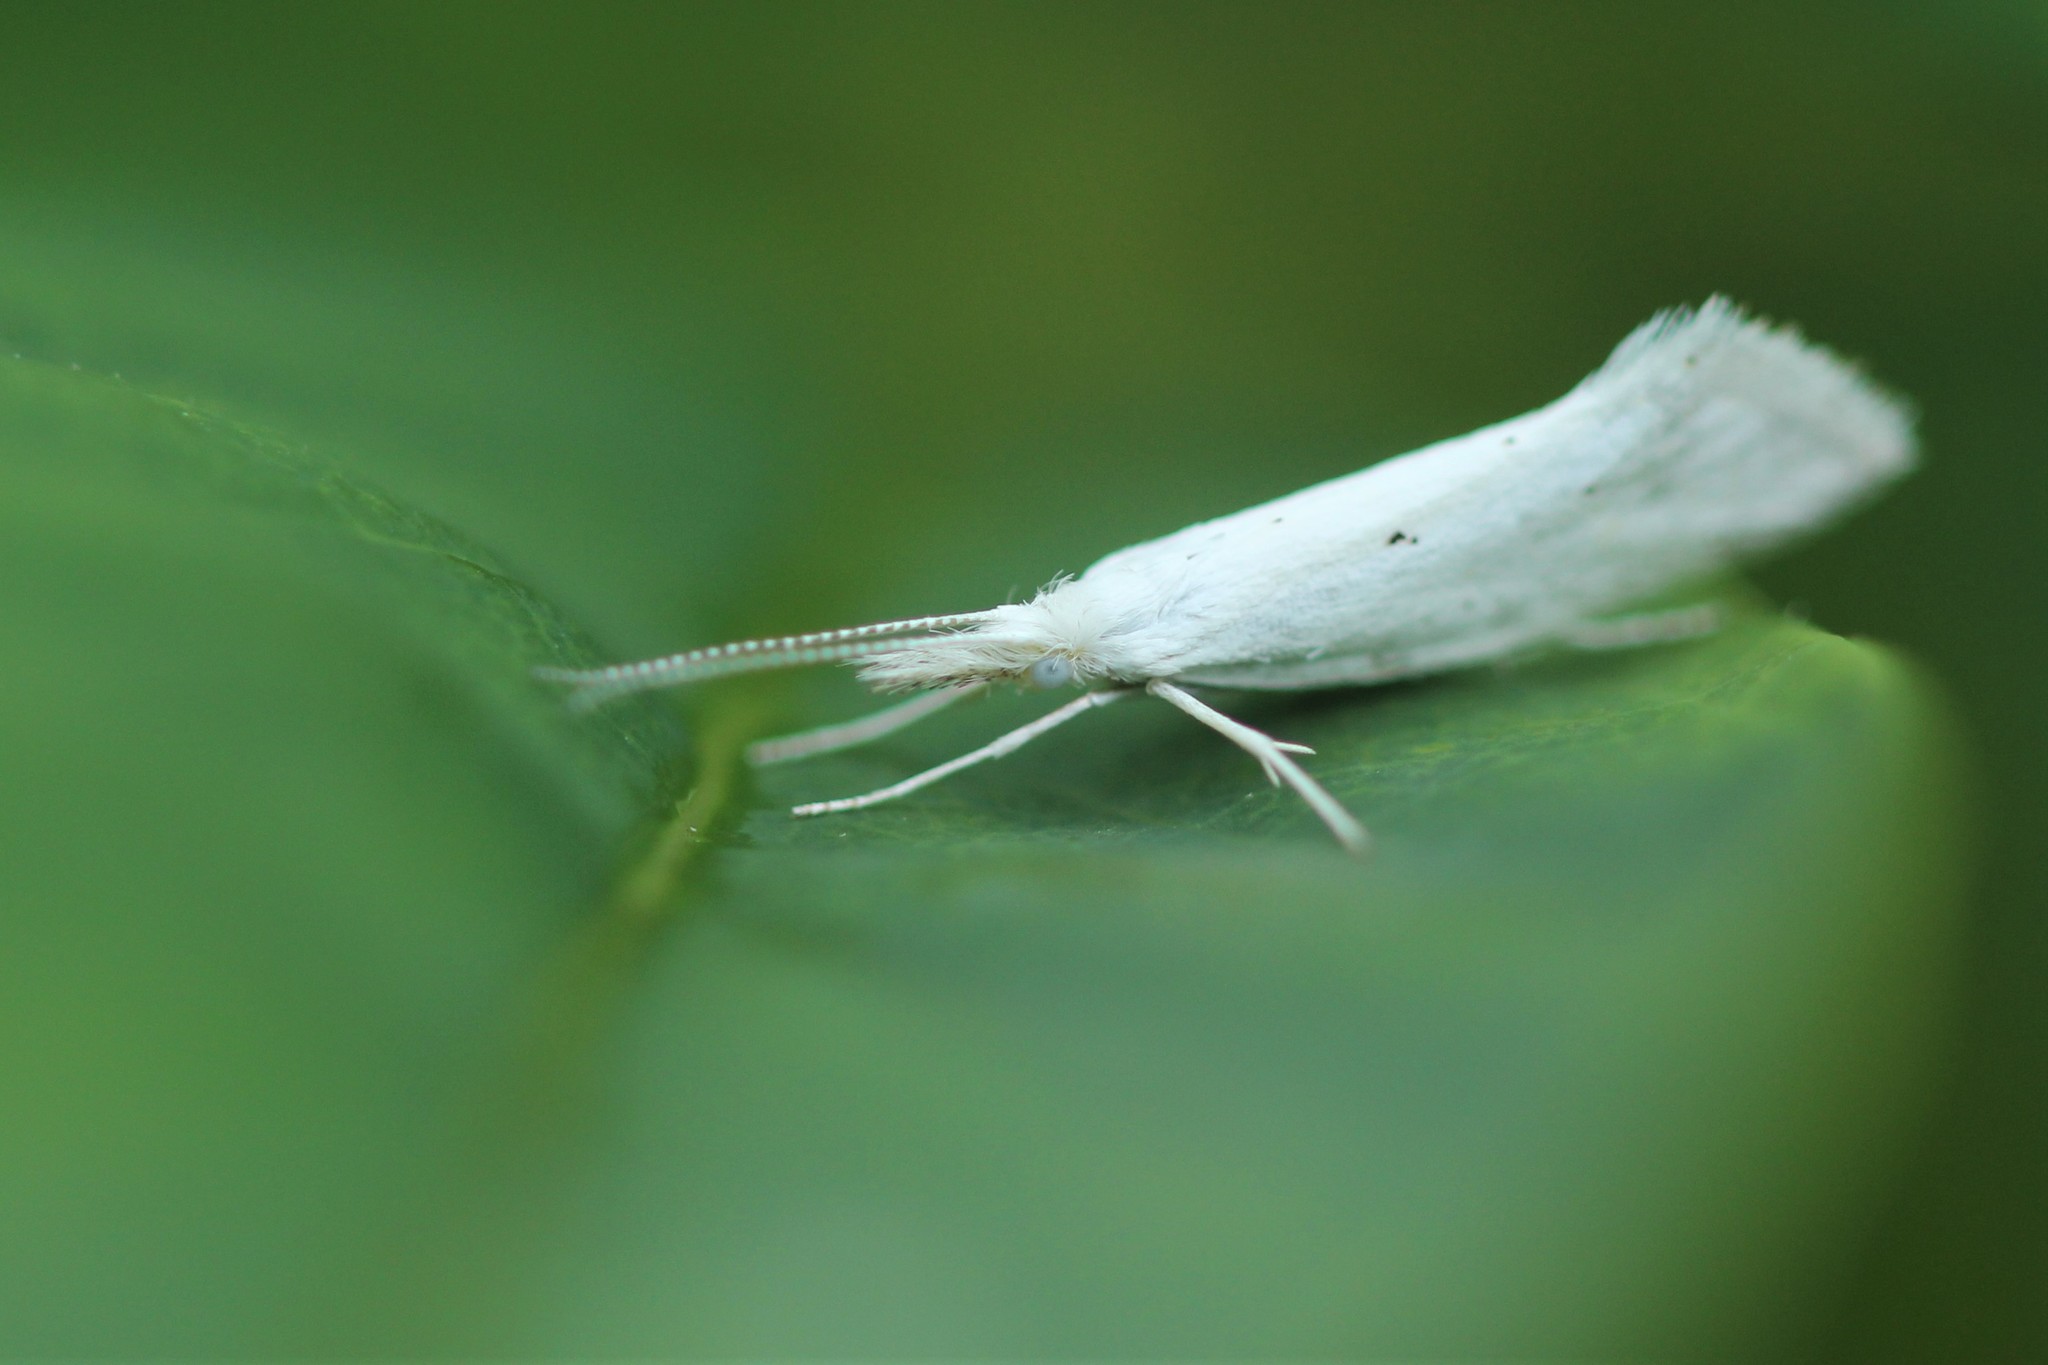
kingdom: Animalia
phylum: Arthropoda
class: Insecta
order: Lepidoptera
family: Ypsolophidae
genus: Euceratia
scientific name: Euceratia castella
